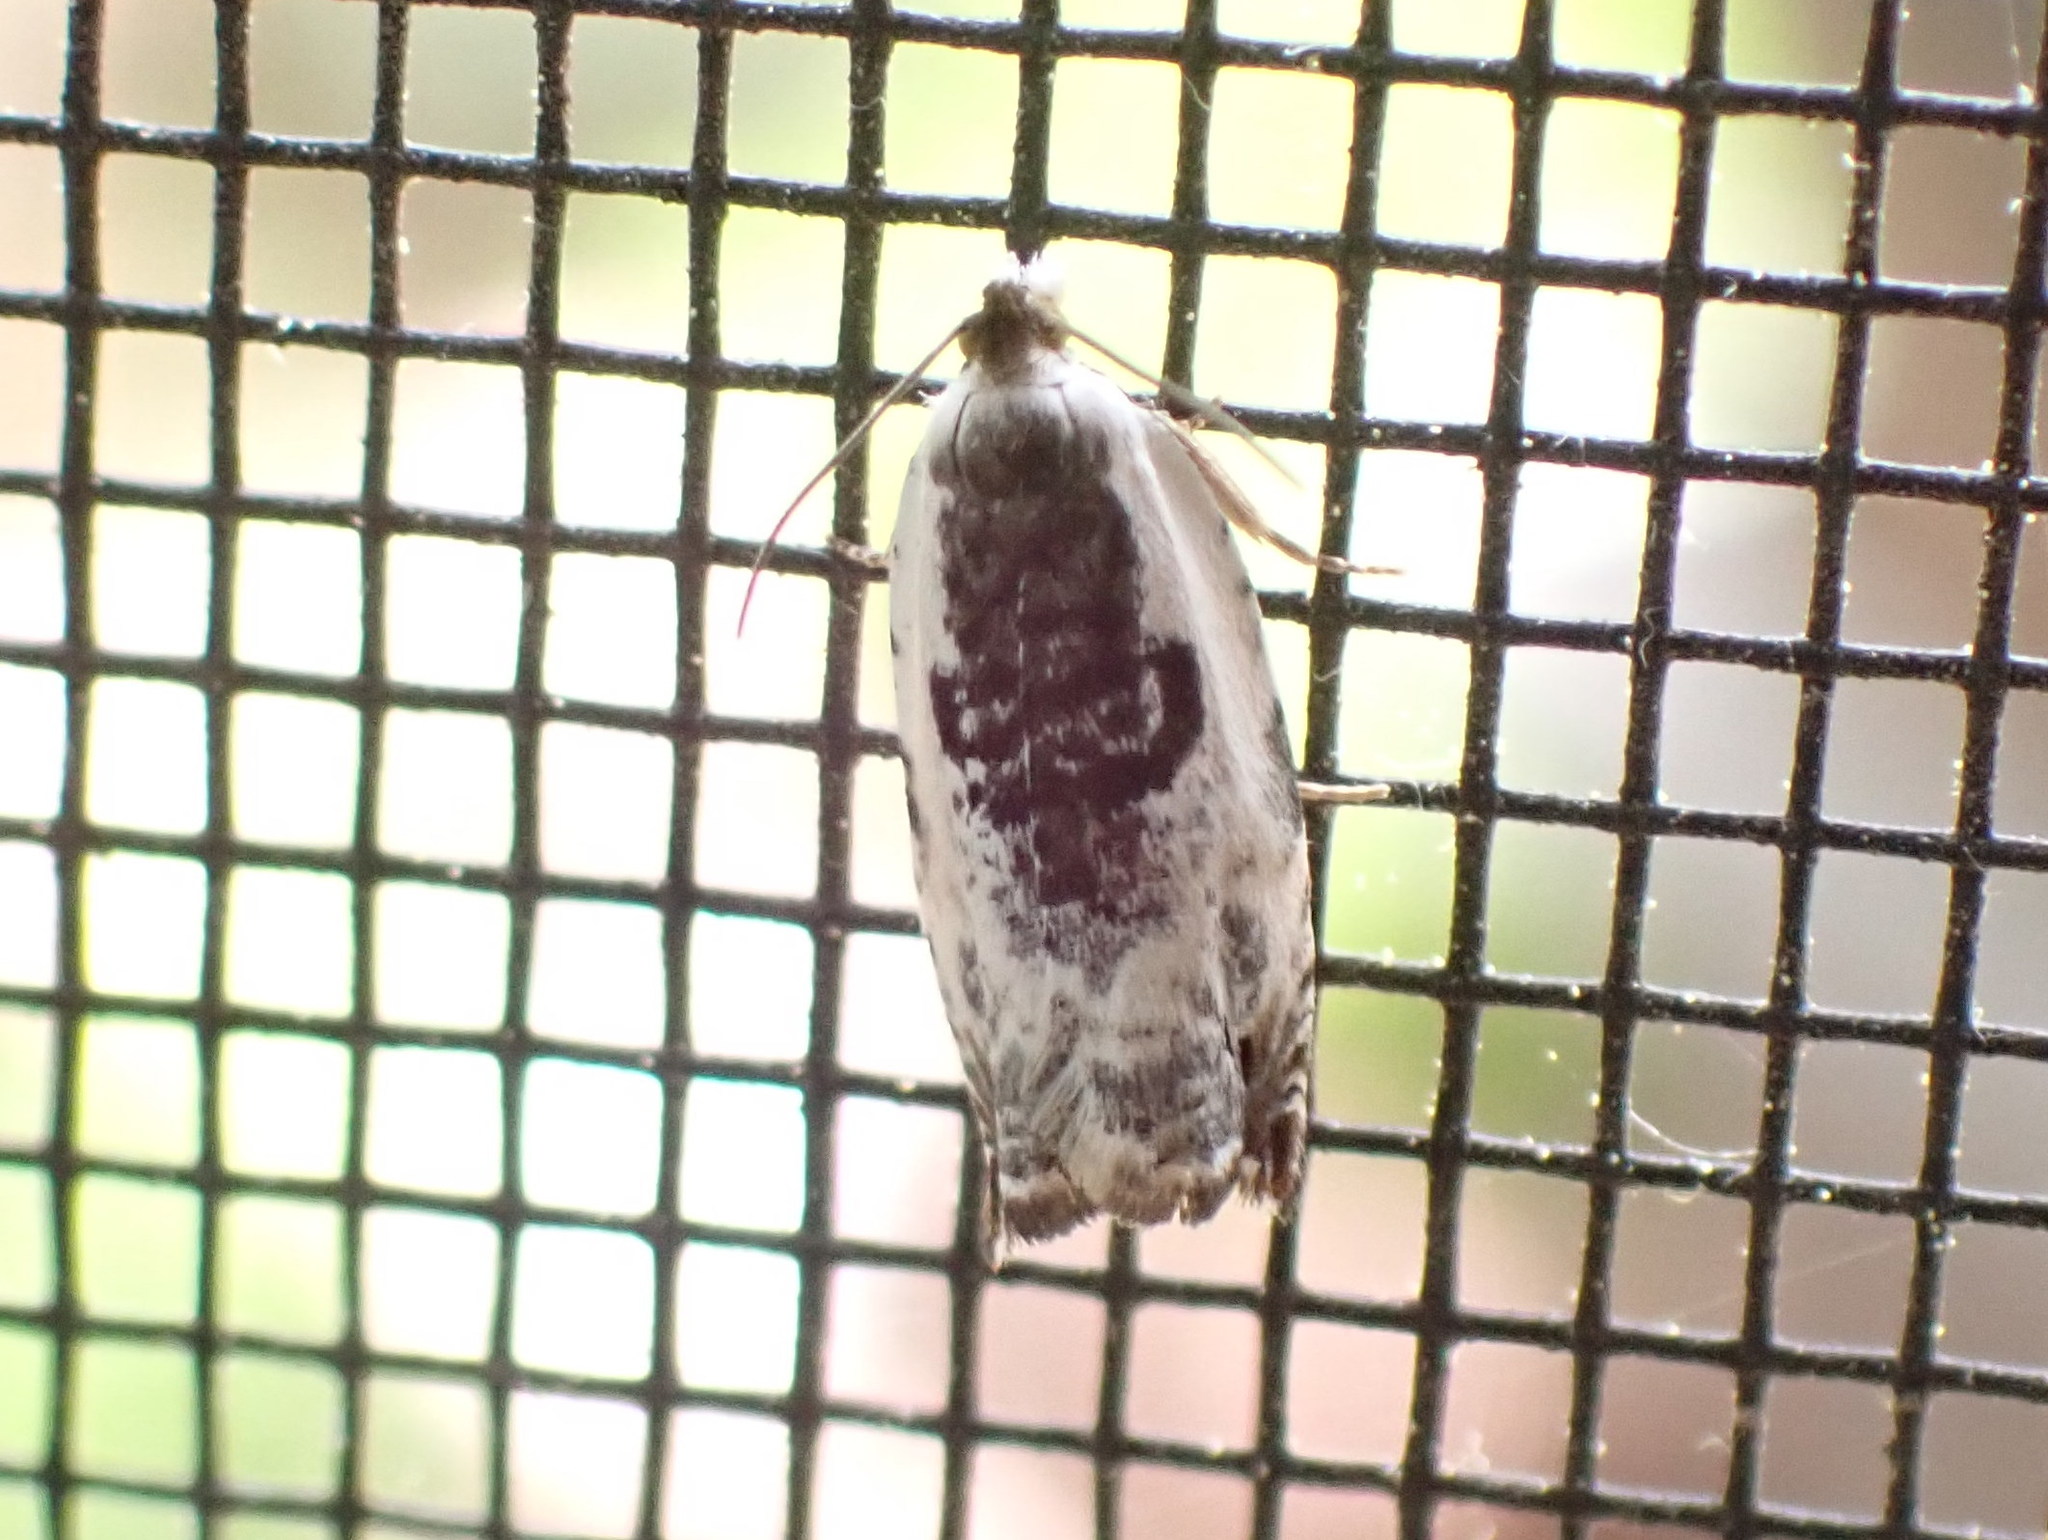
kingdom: Animalia
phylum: Arthropoda
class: Insecta
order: Lepidoptera
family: Tortricidae
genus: Ancylis
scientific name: Ancylis nubeculana
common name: Little cloud ancylis moth
